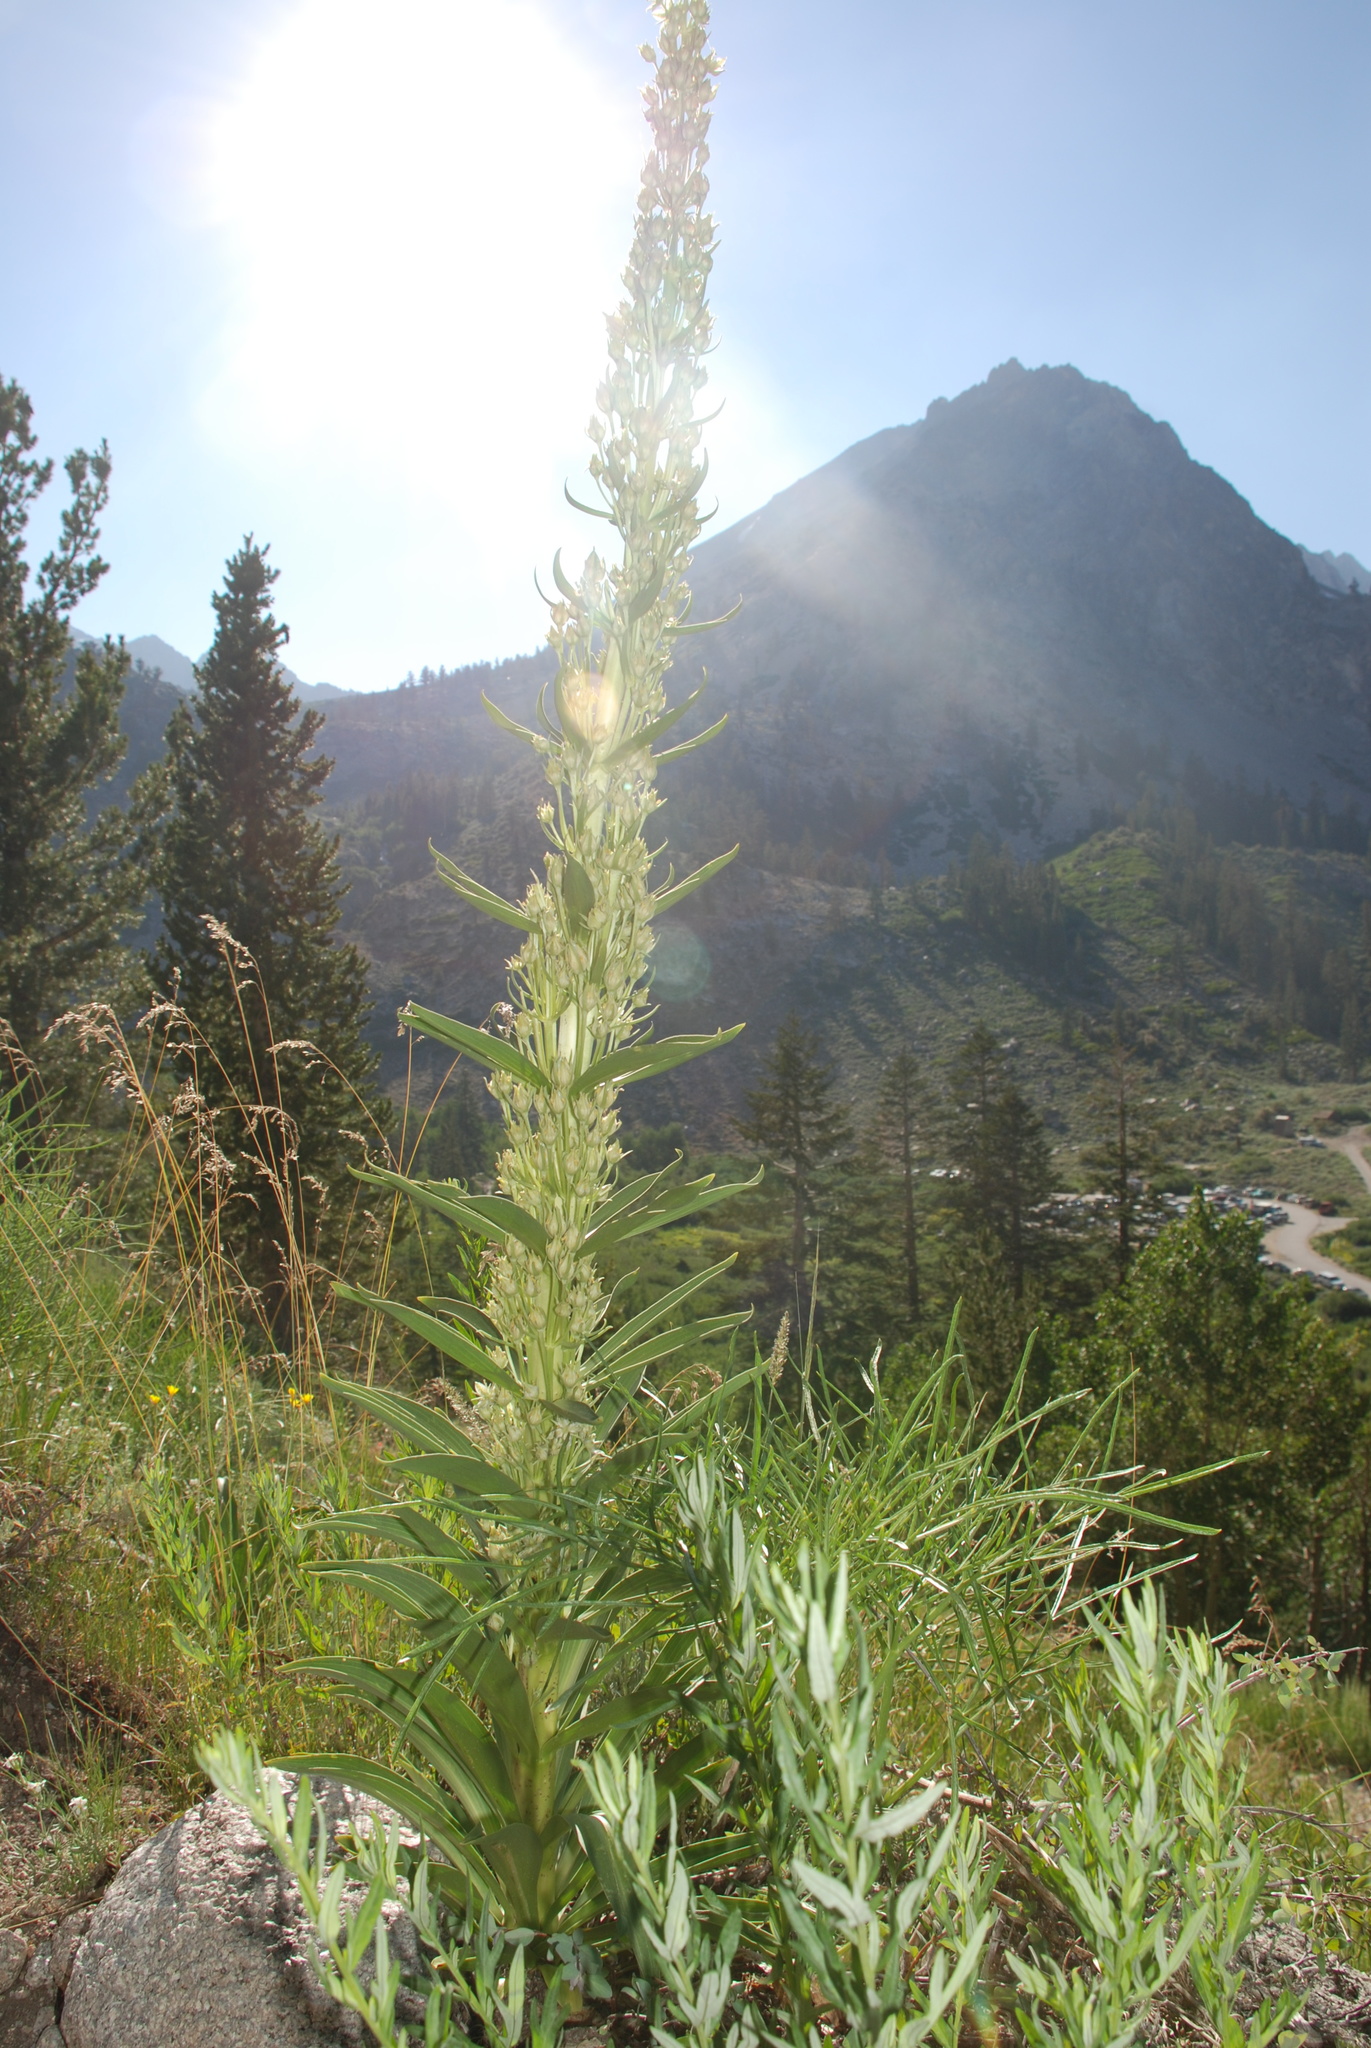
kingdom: Plantae
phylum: Tracheophyta
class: Magnoliopsida
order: Gentianales
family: Gentianaceae
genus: Frasera
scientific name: Frasera speciosa
